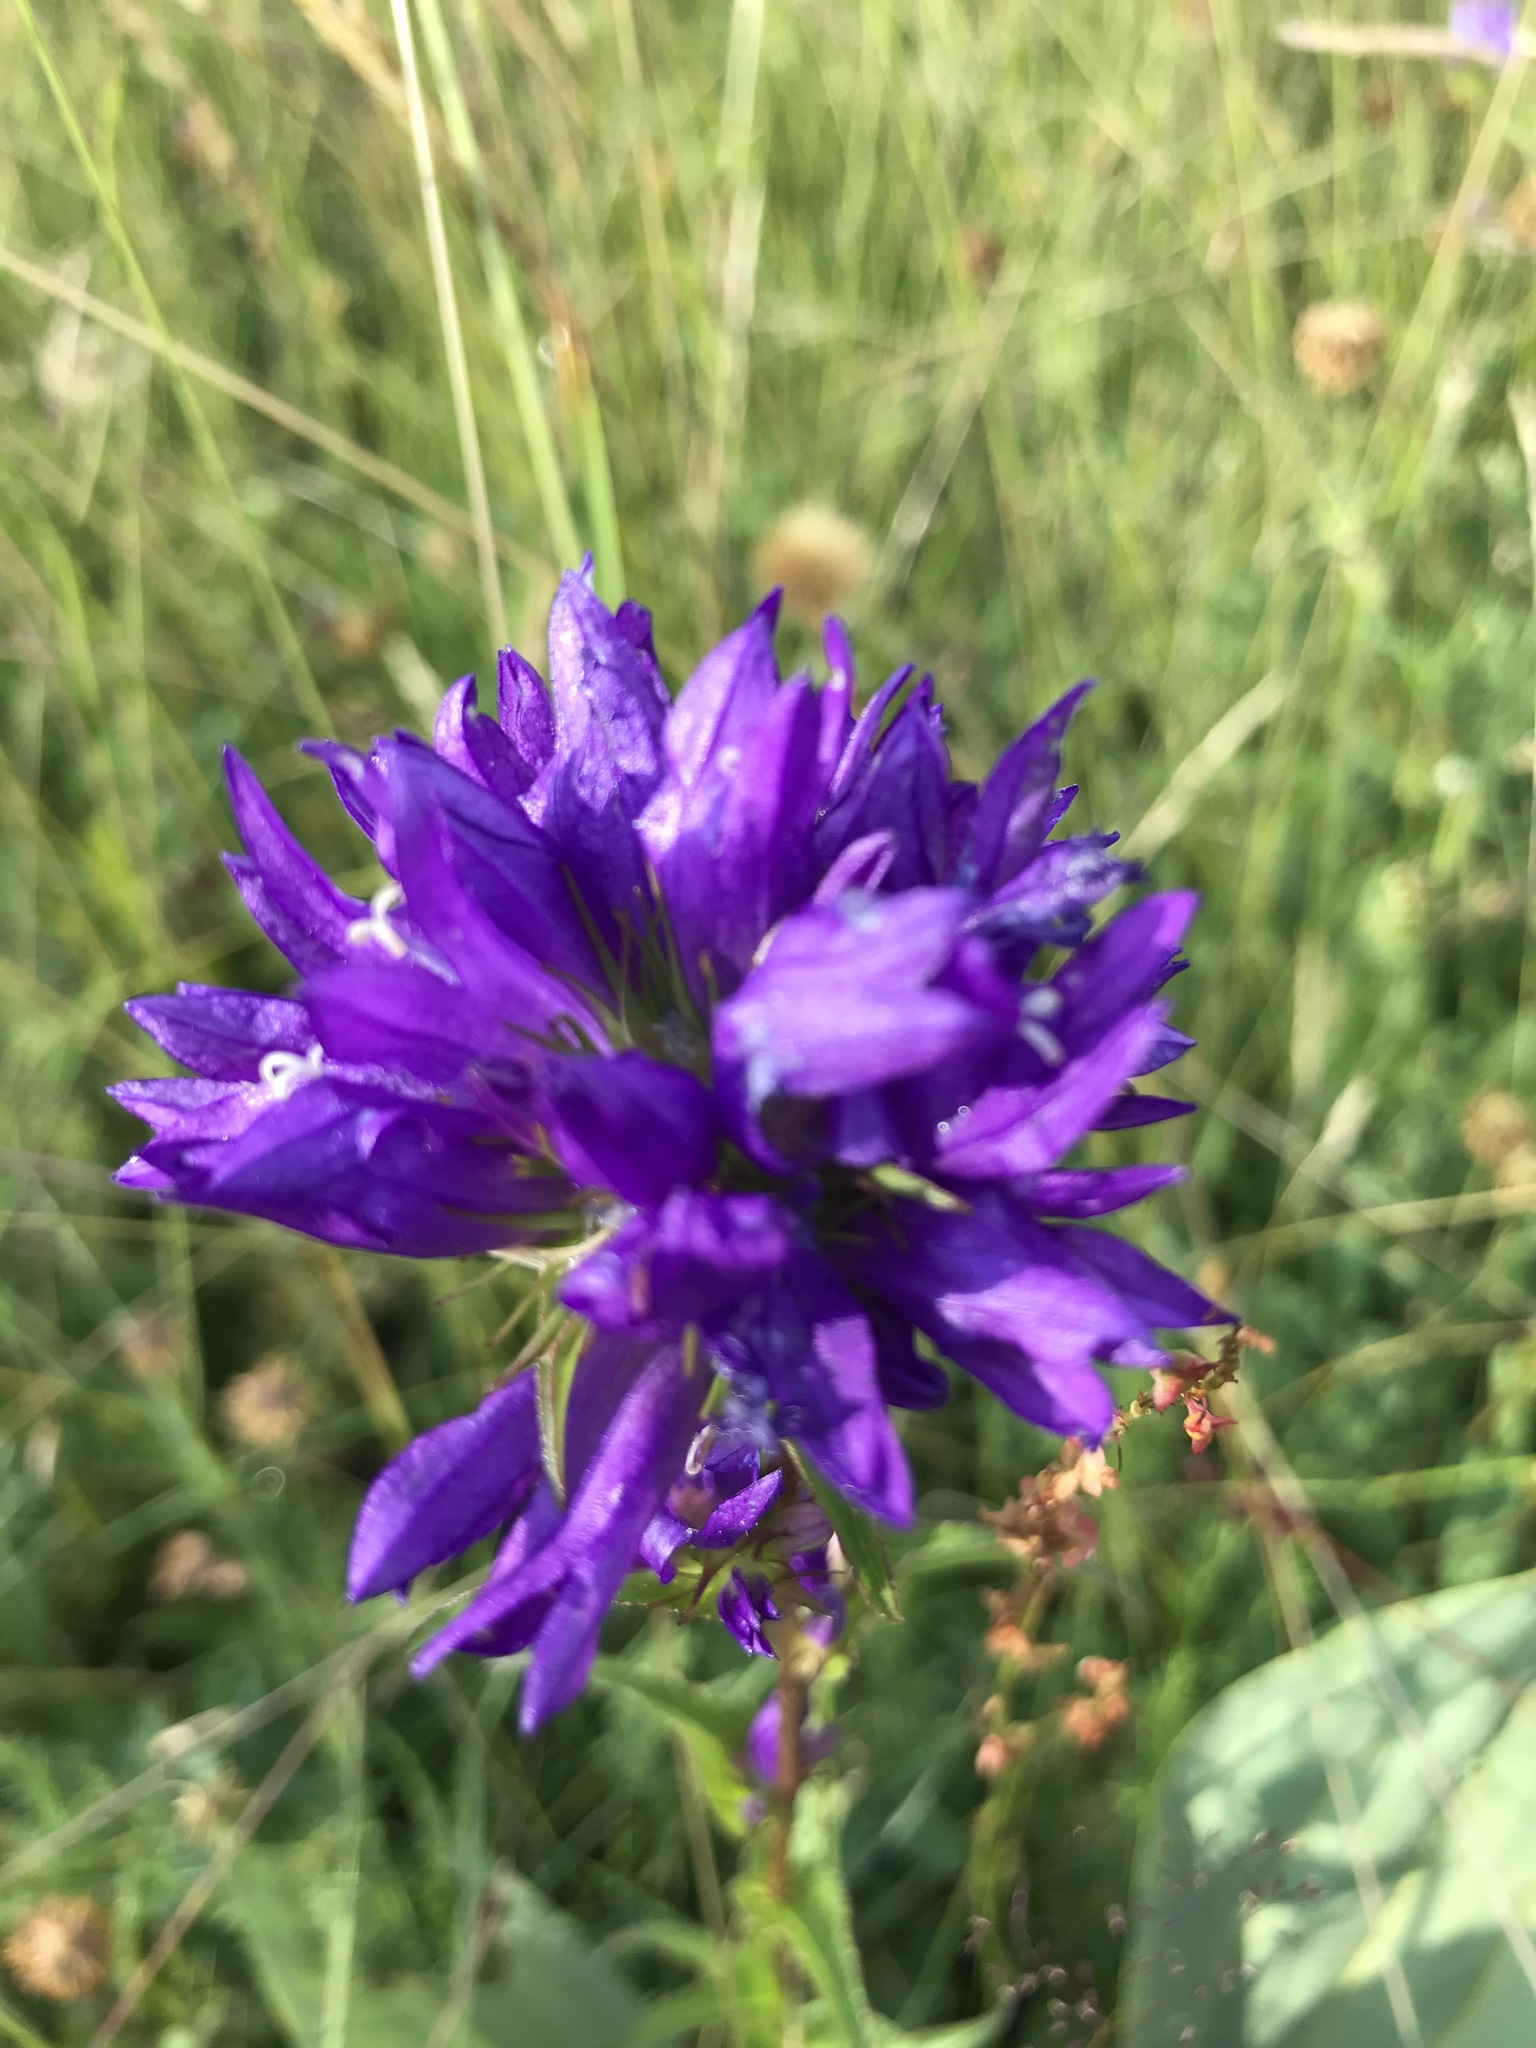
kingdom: Plantae
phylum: Tracheophyta
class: Magnoliopsida
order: Asterales
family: Campanulaceae
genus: Campanula
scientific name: Campanula glomerata
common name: Clustered bellflower
